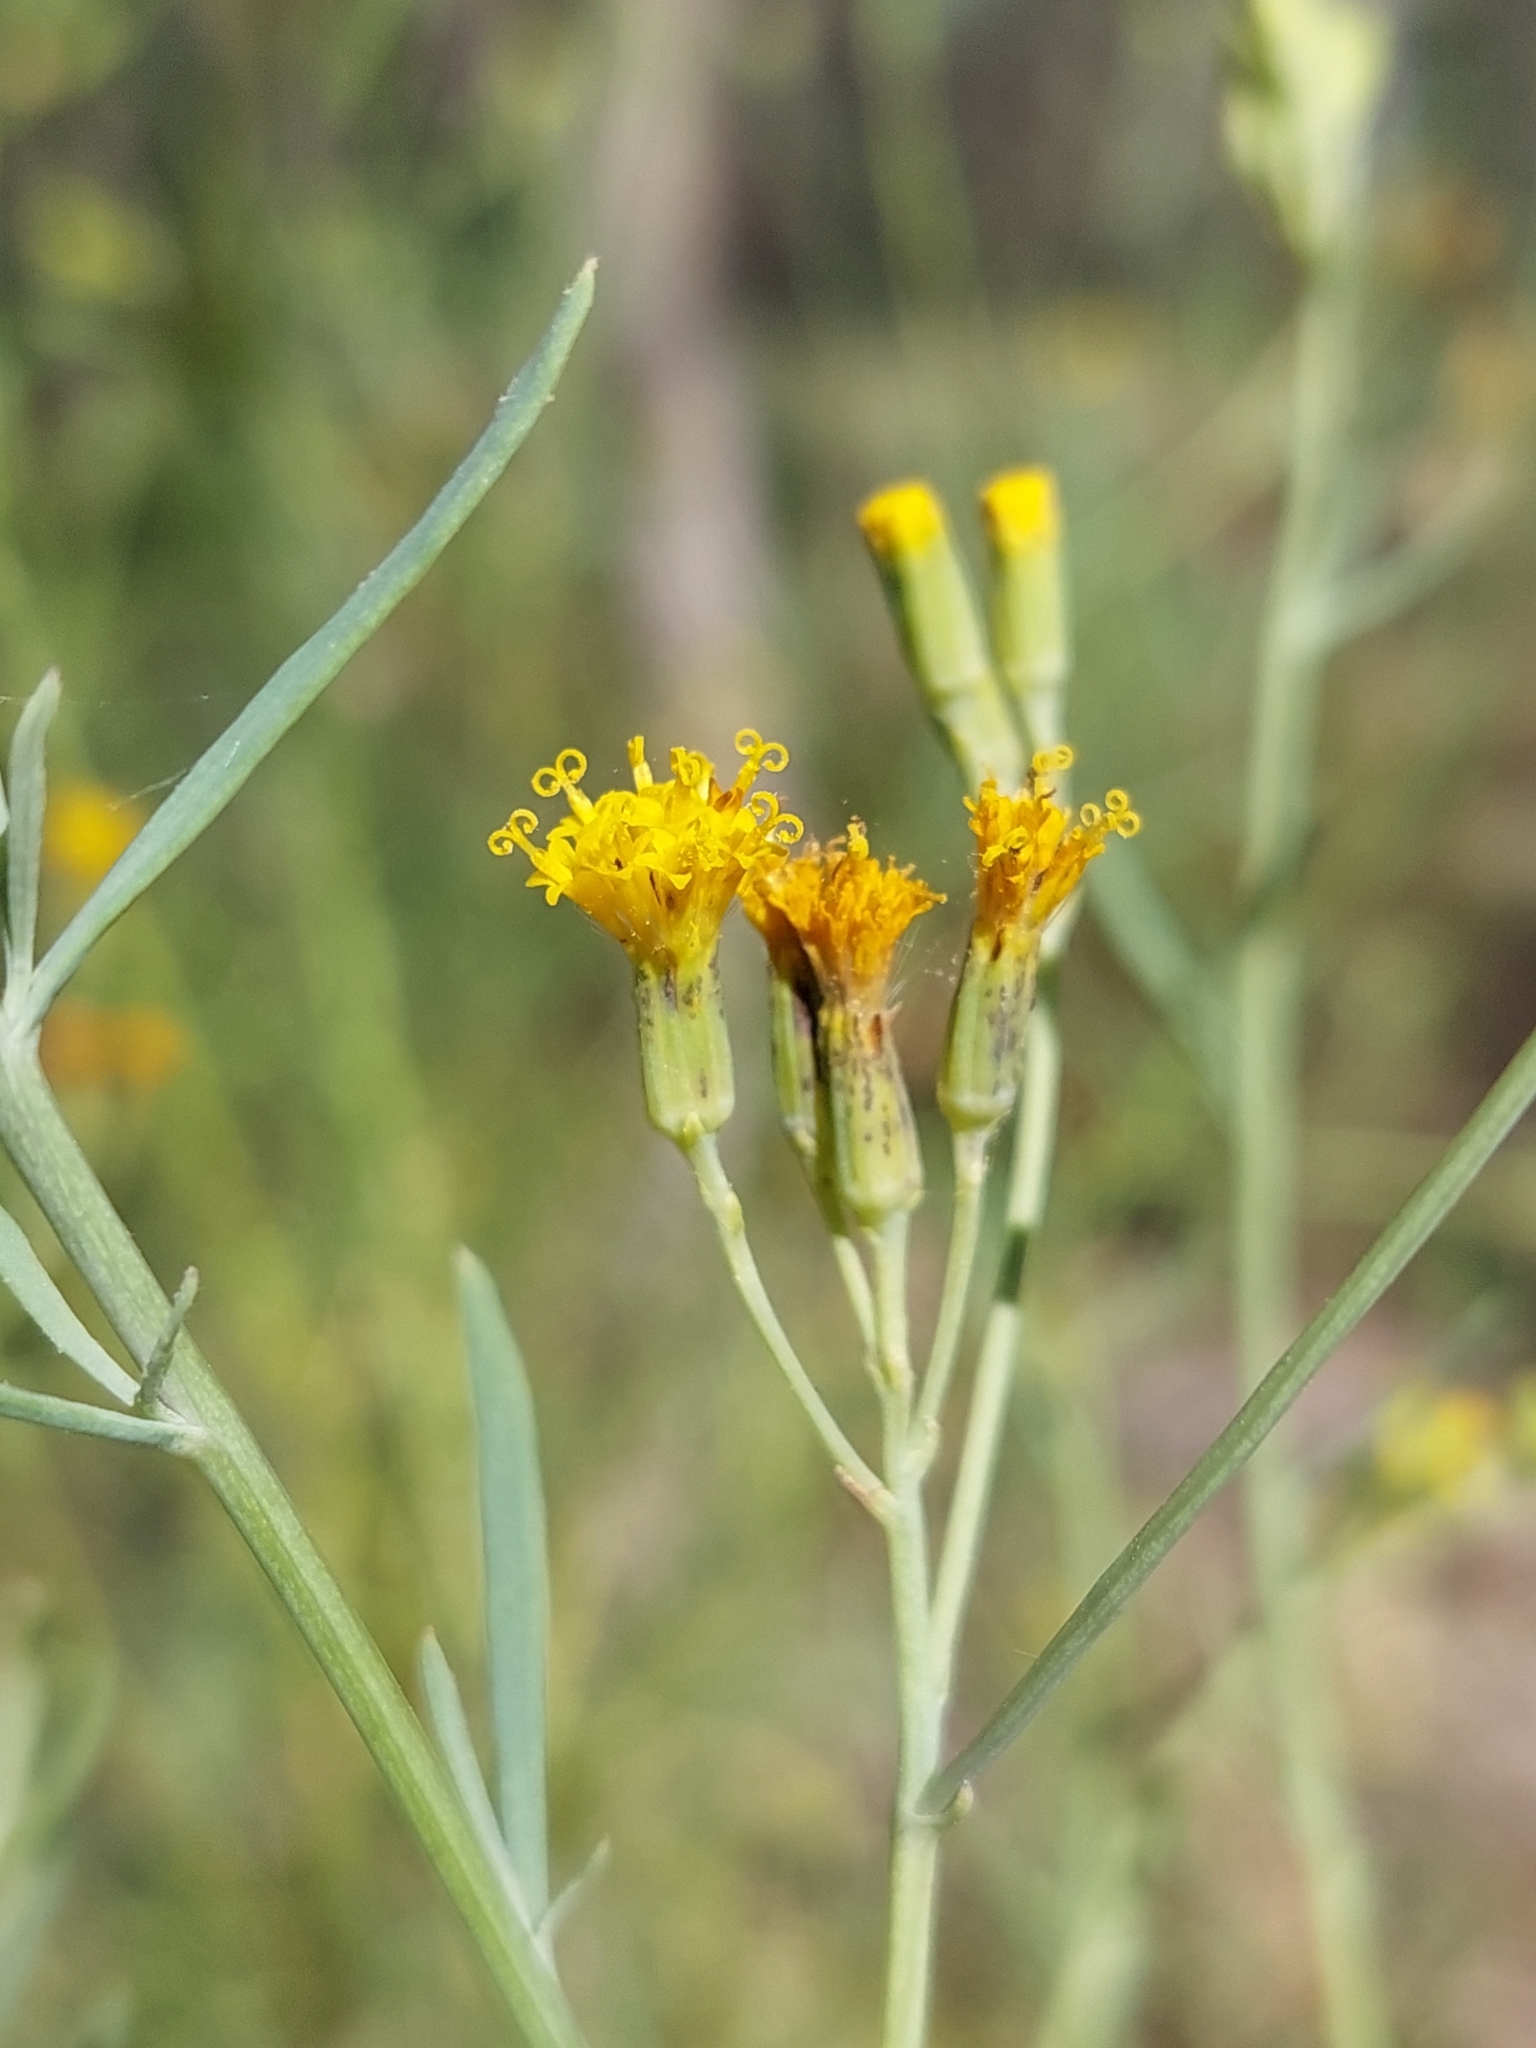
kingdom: Plantae
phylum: Tracheophyta
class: Magnoliopsida
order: Asterales
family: Asteraceae
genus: Senecio
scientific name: Senecio cunninghamii
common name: Bushy groundsel
